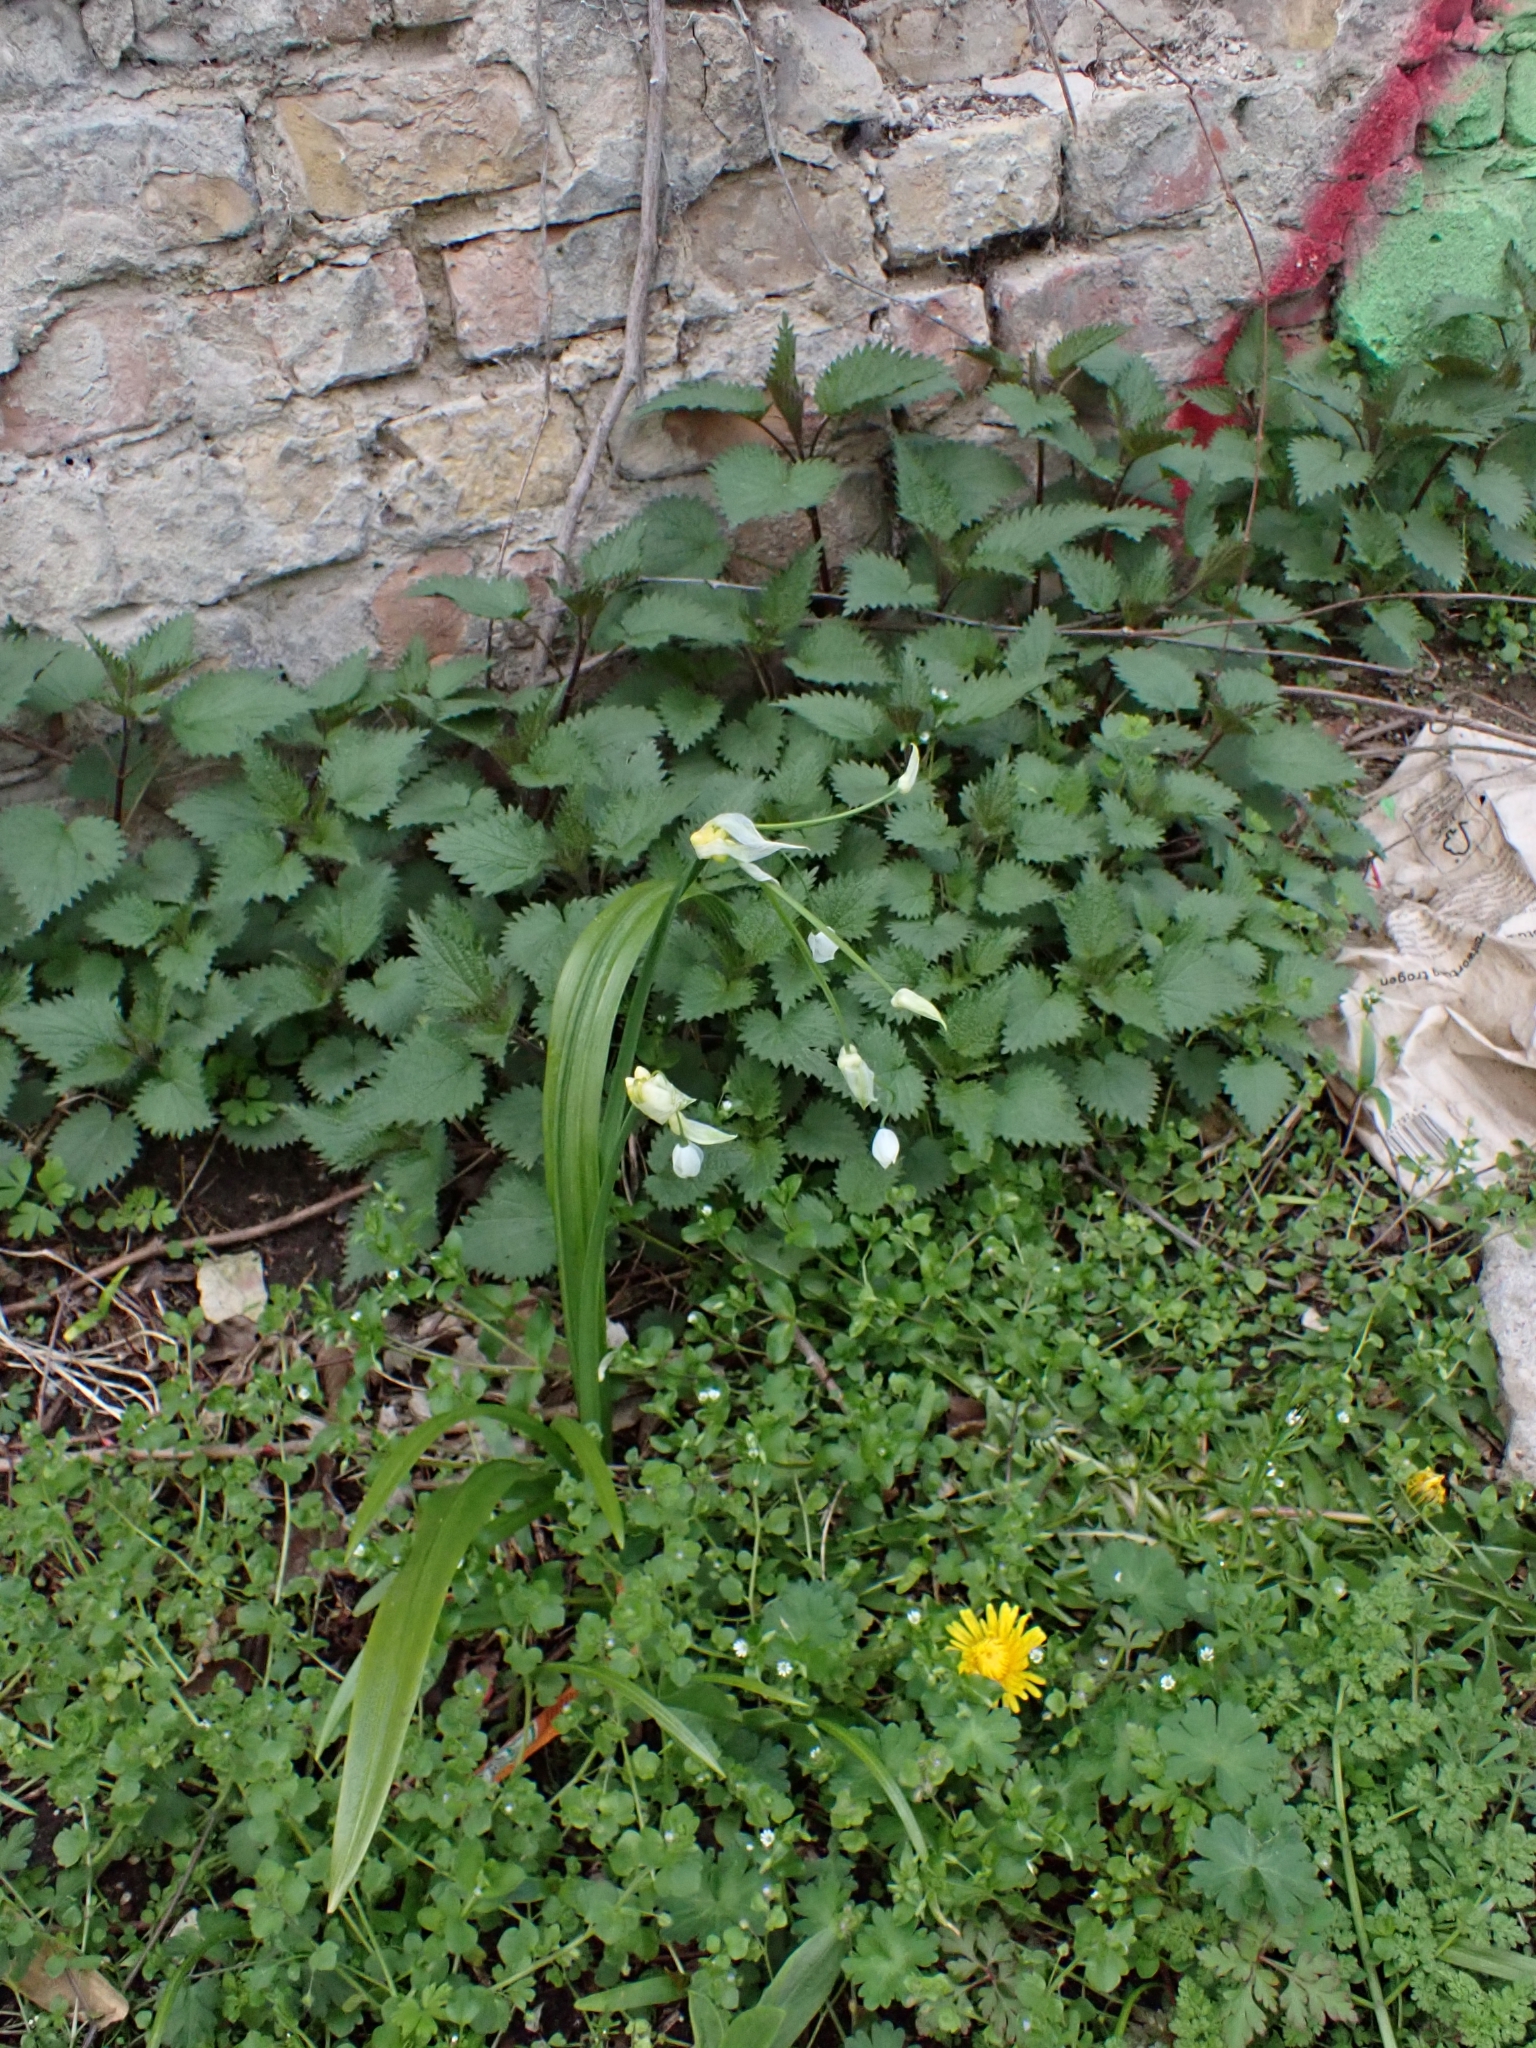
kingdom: Plantae
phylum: Tracheophyta
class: Liliopsida
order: Asparagales
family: Amaryllidaceae
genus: Allium
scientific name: Allium paradoxum
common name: Few-flowered garlic
